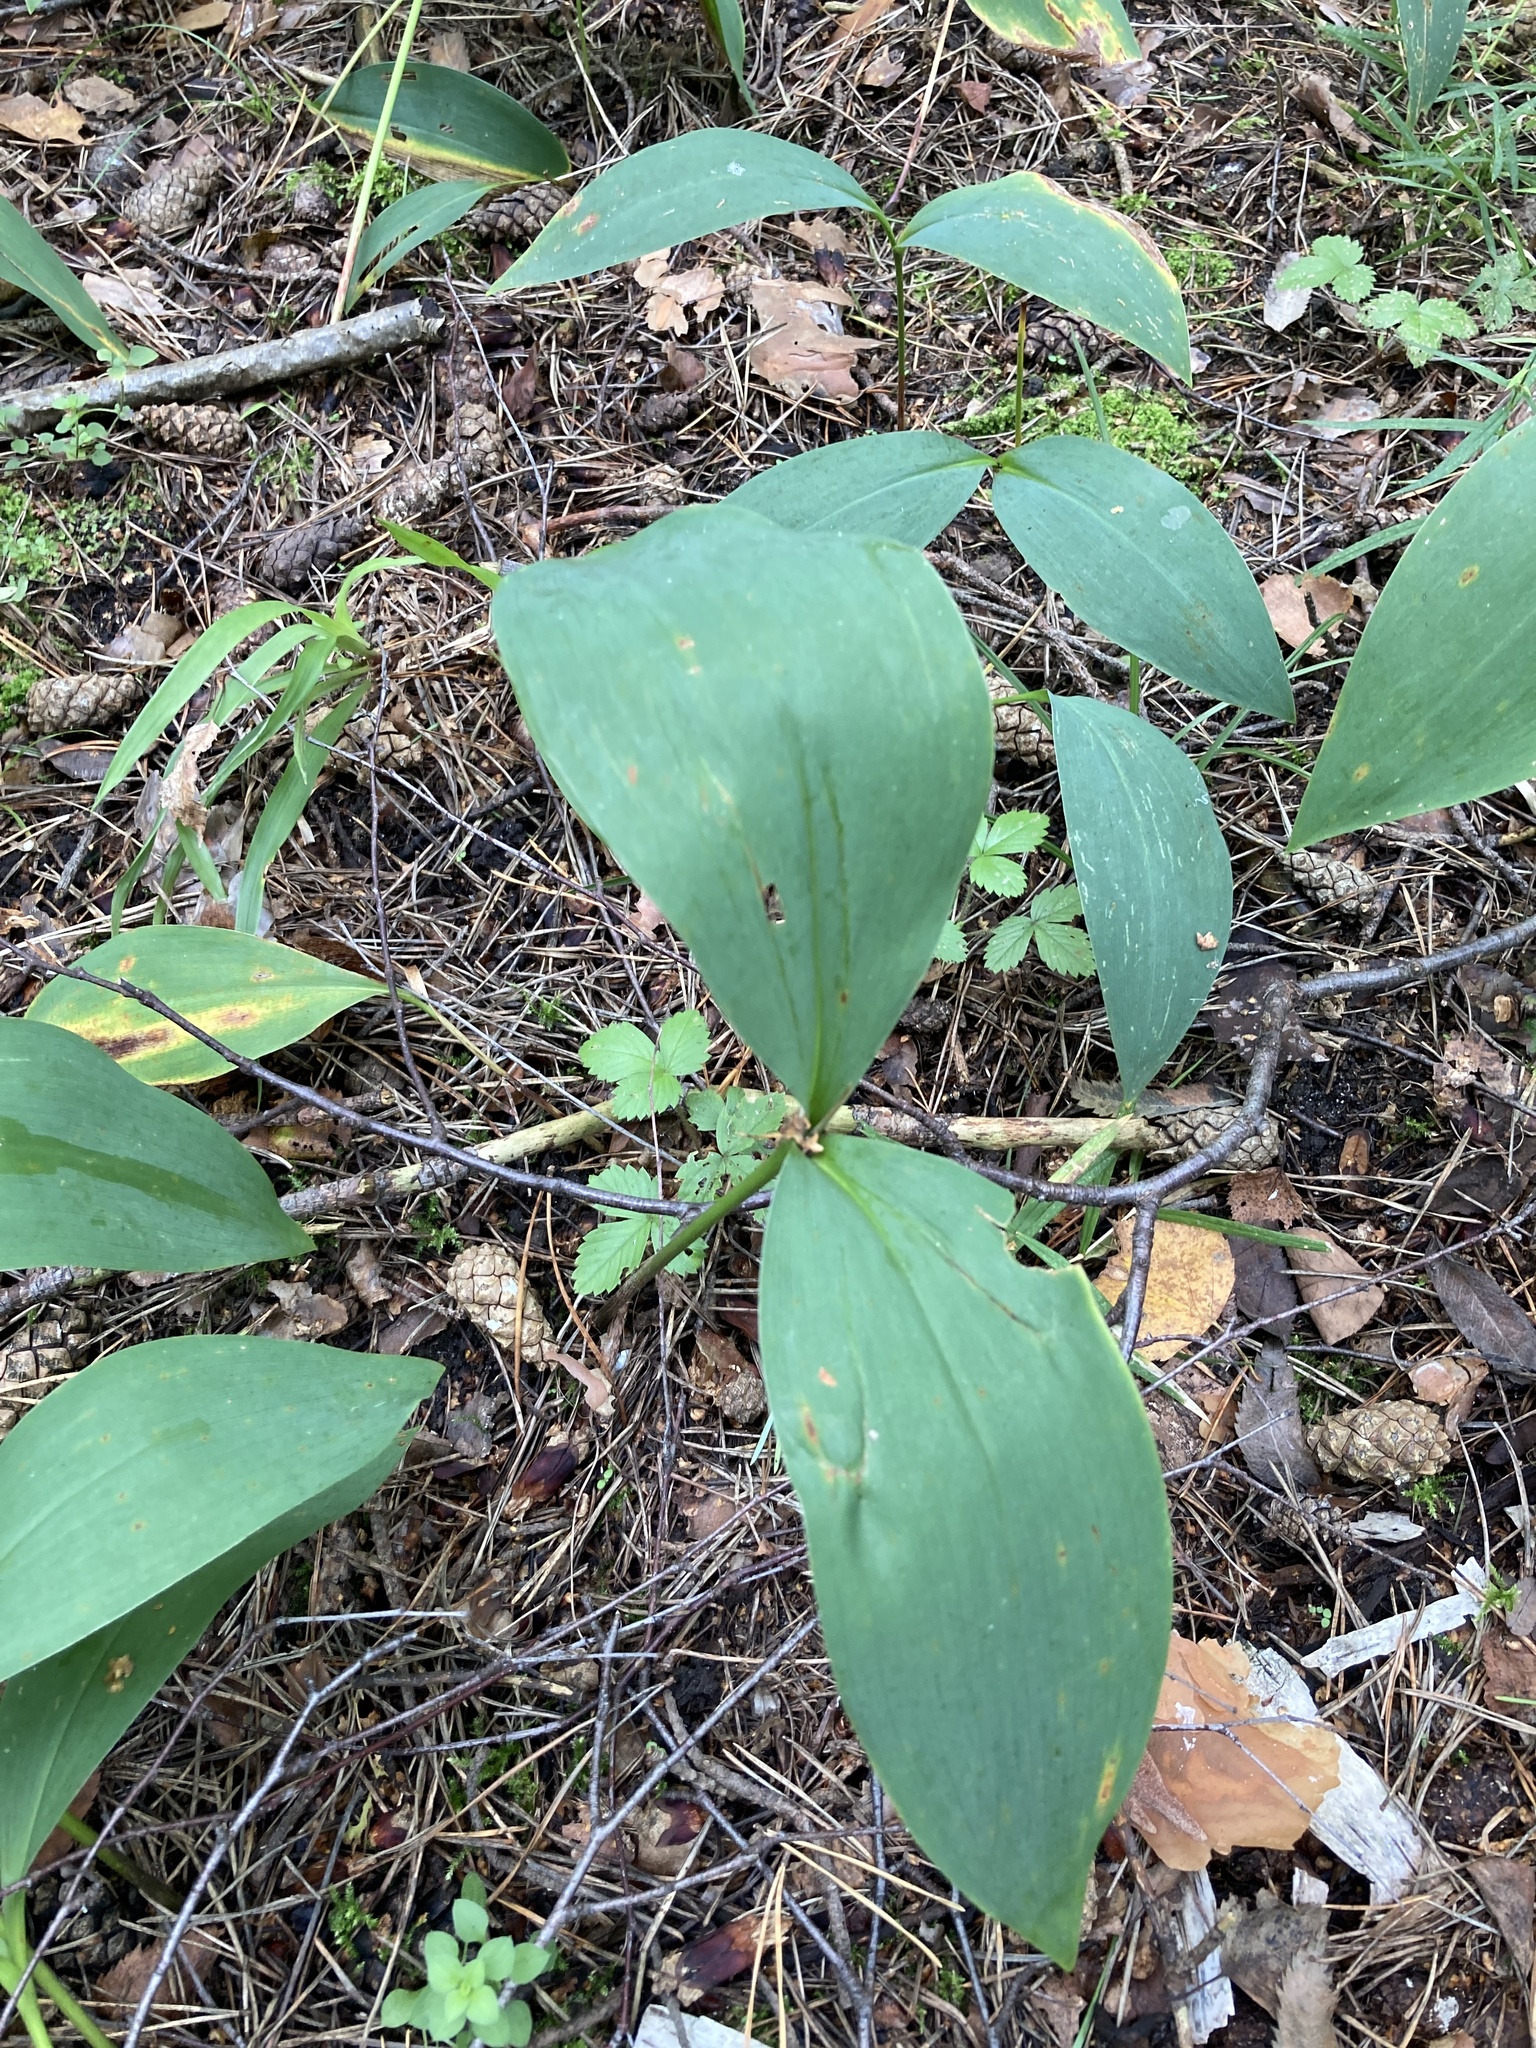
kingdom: Plantae
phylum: Tracheophyta
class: Liliopsida
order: Asparagales
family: Asparagaceae
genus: Convallaria
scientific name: Convallaria majalis
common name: Lily-of-the-valley
